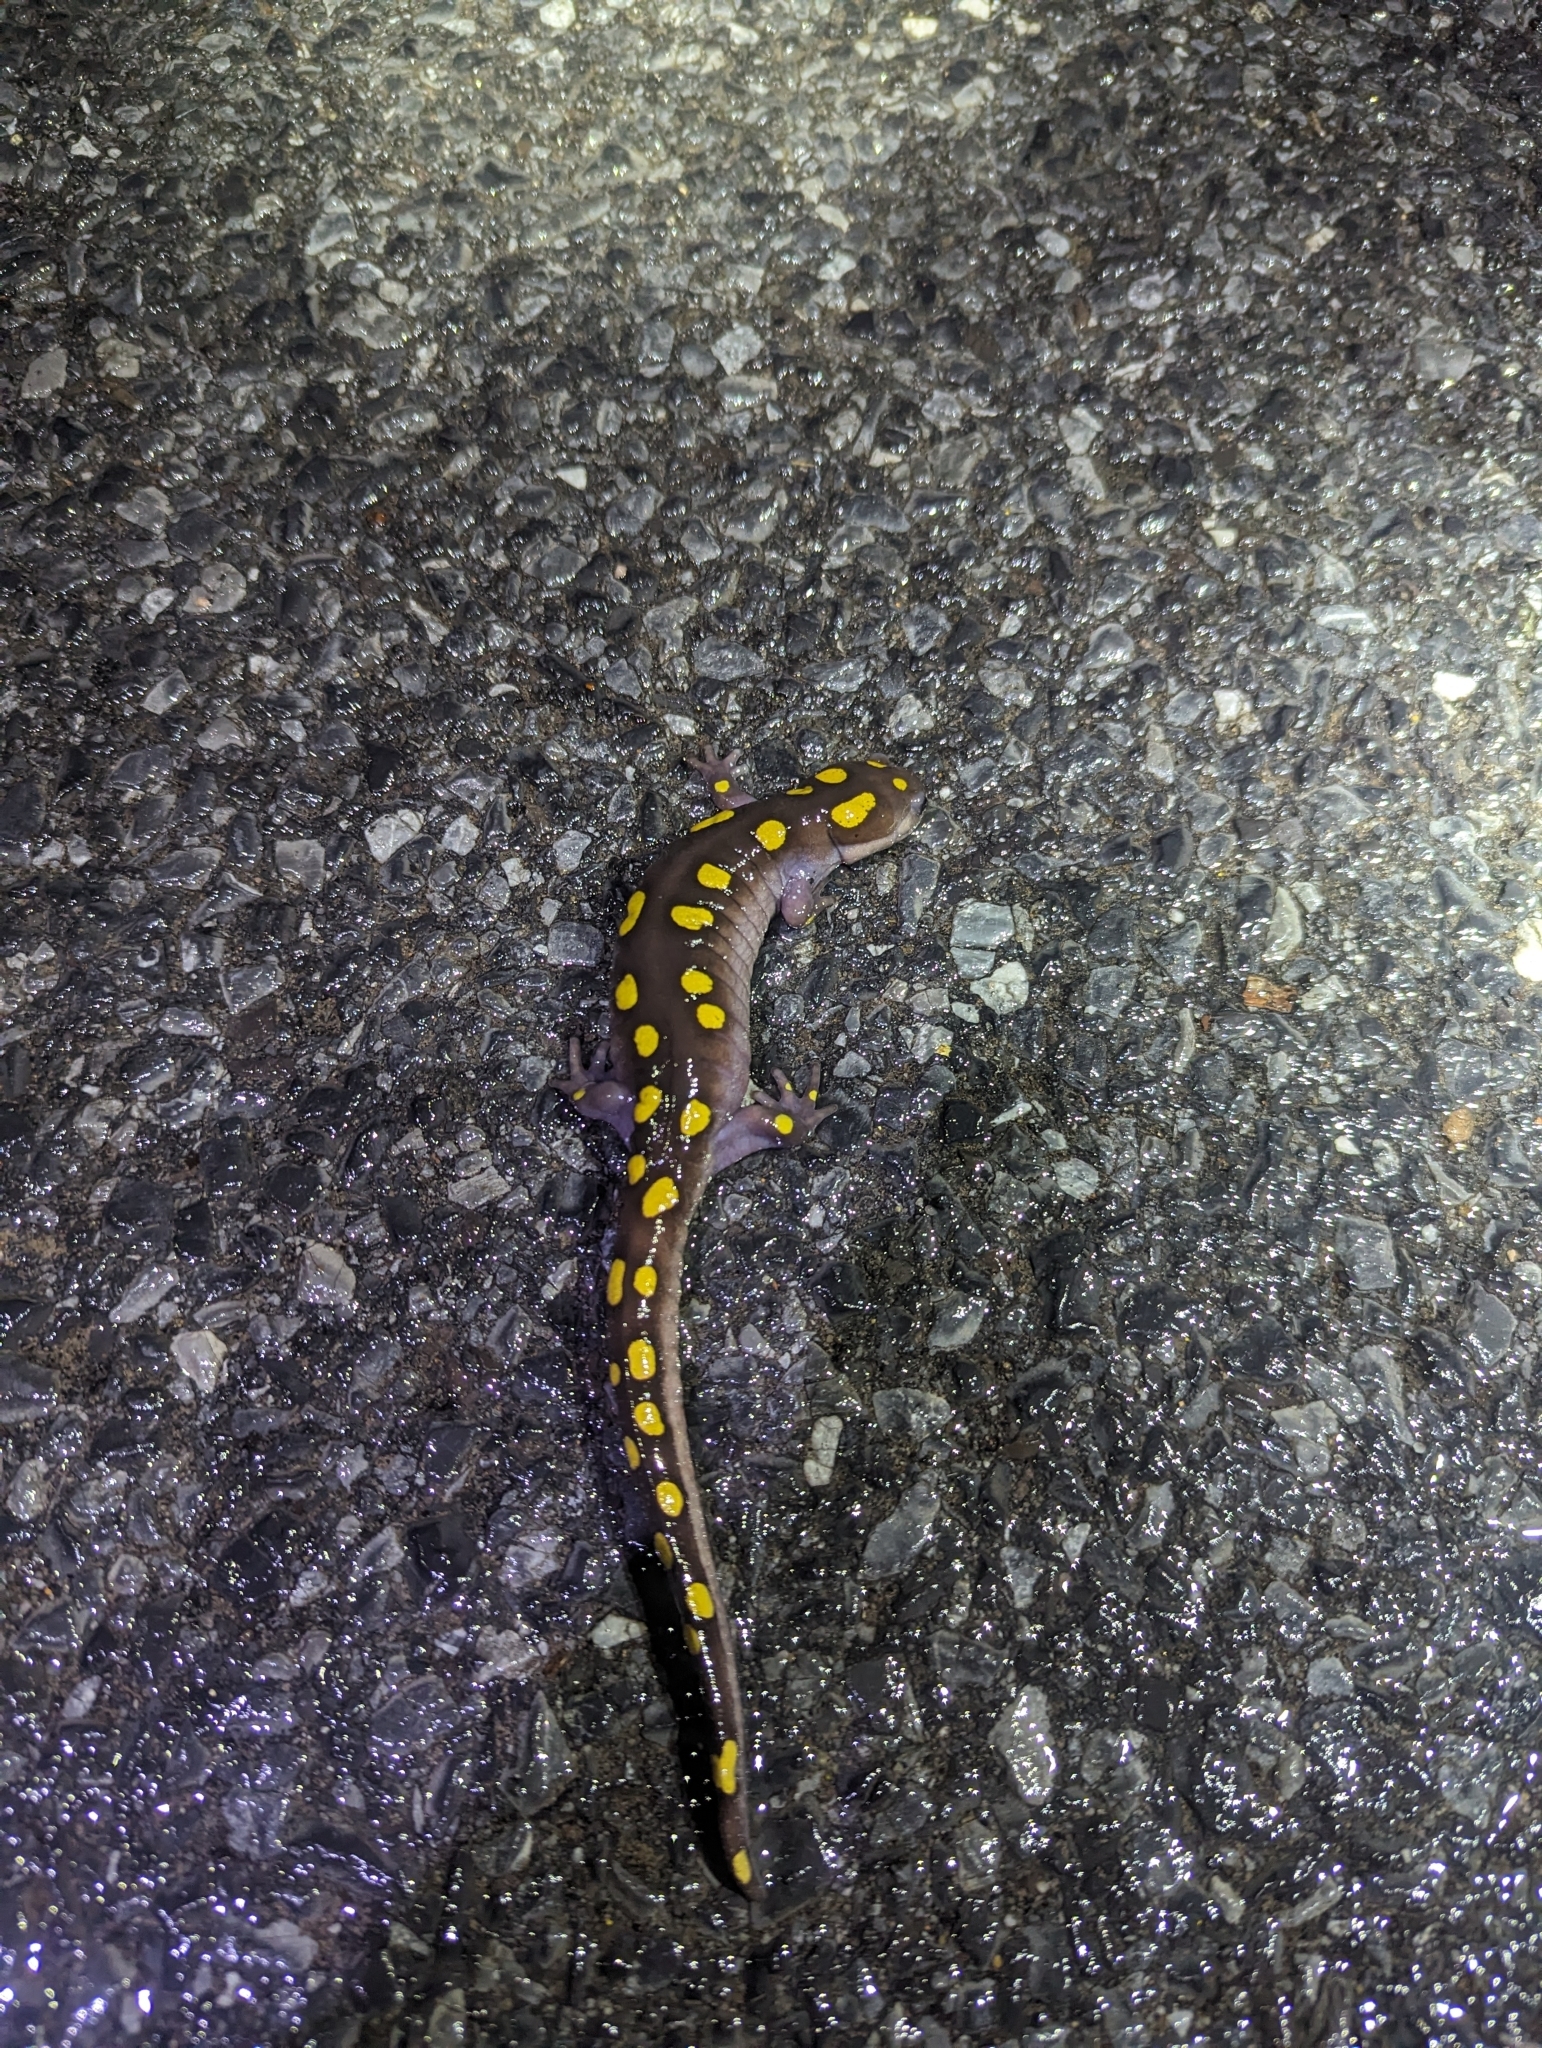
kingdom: Animalia
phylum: Chordata
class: Amphibia
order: Caudata
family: Ambystomatidae
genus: Ambystoma
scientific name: Ambystoma maculatum
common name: Spotted salamander
